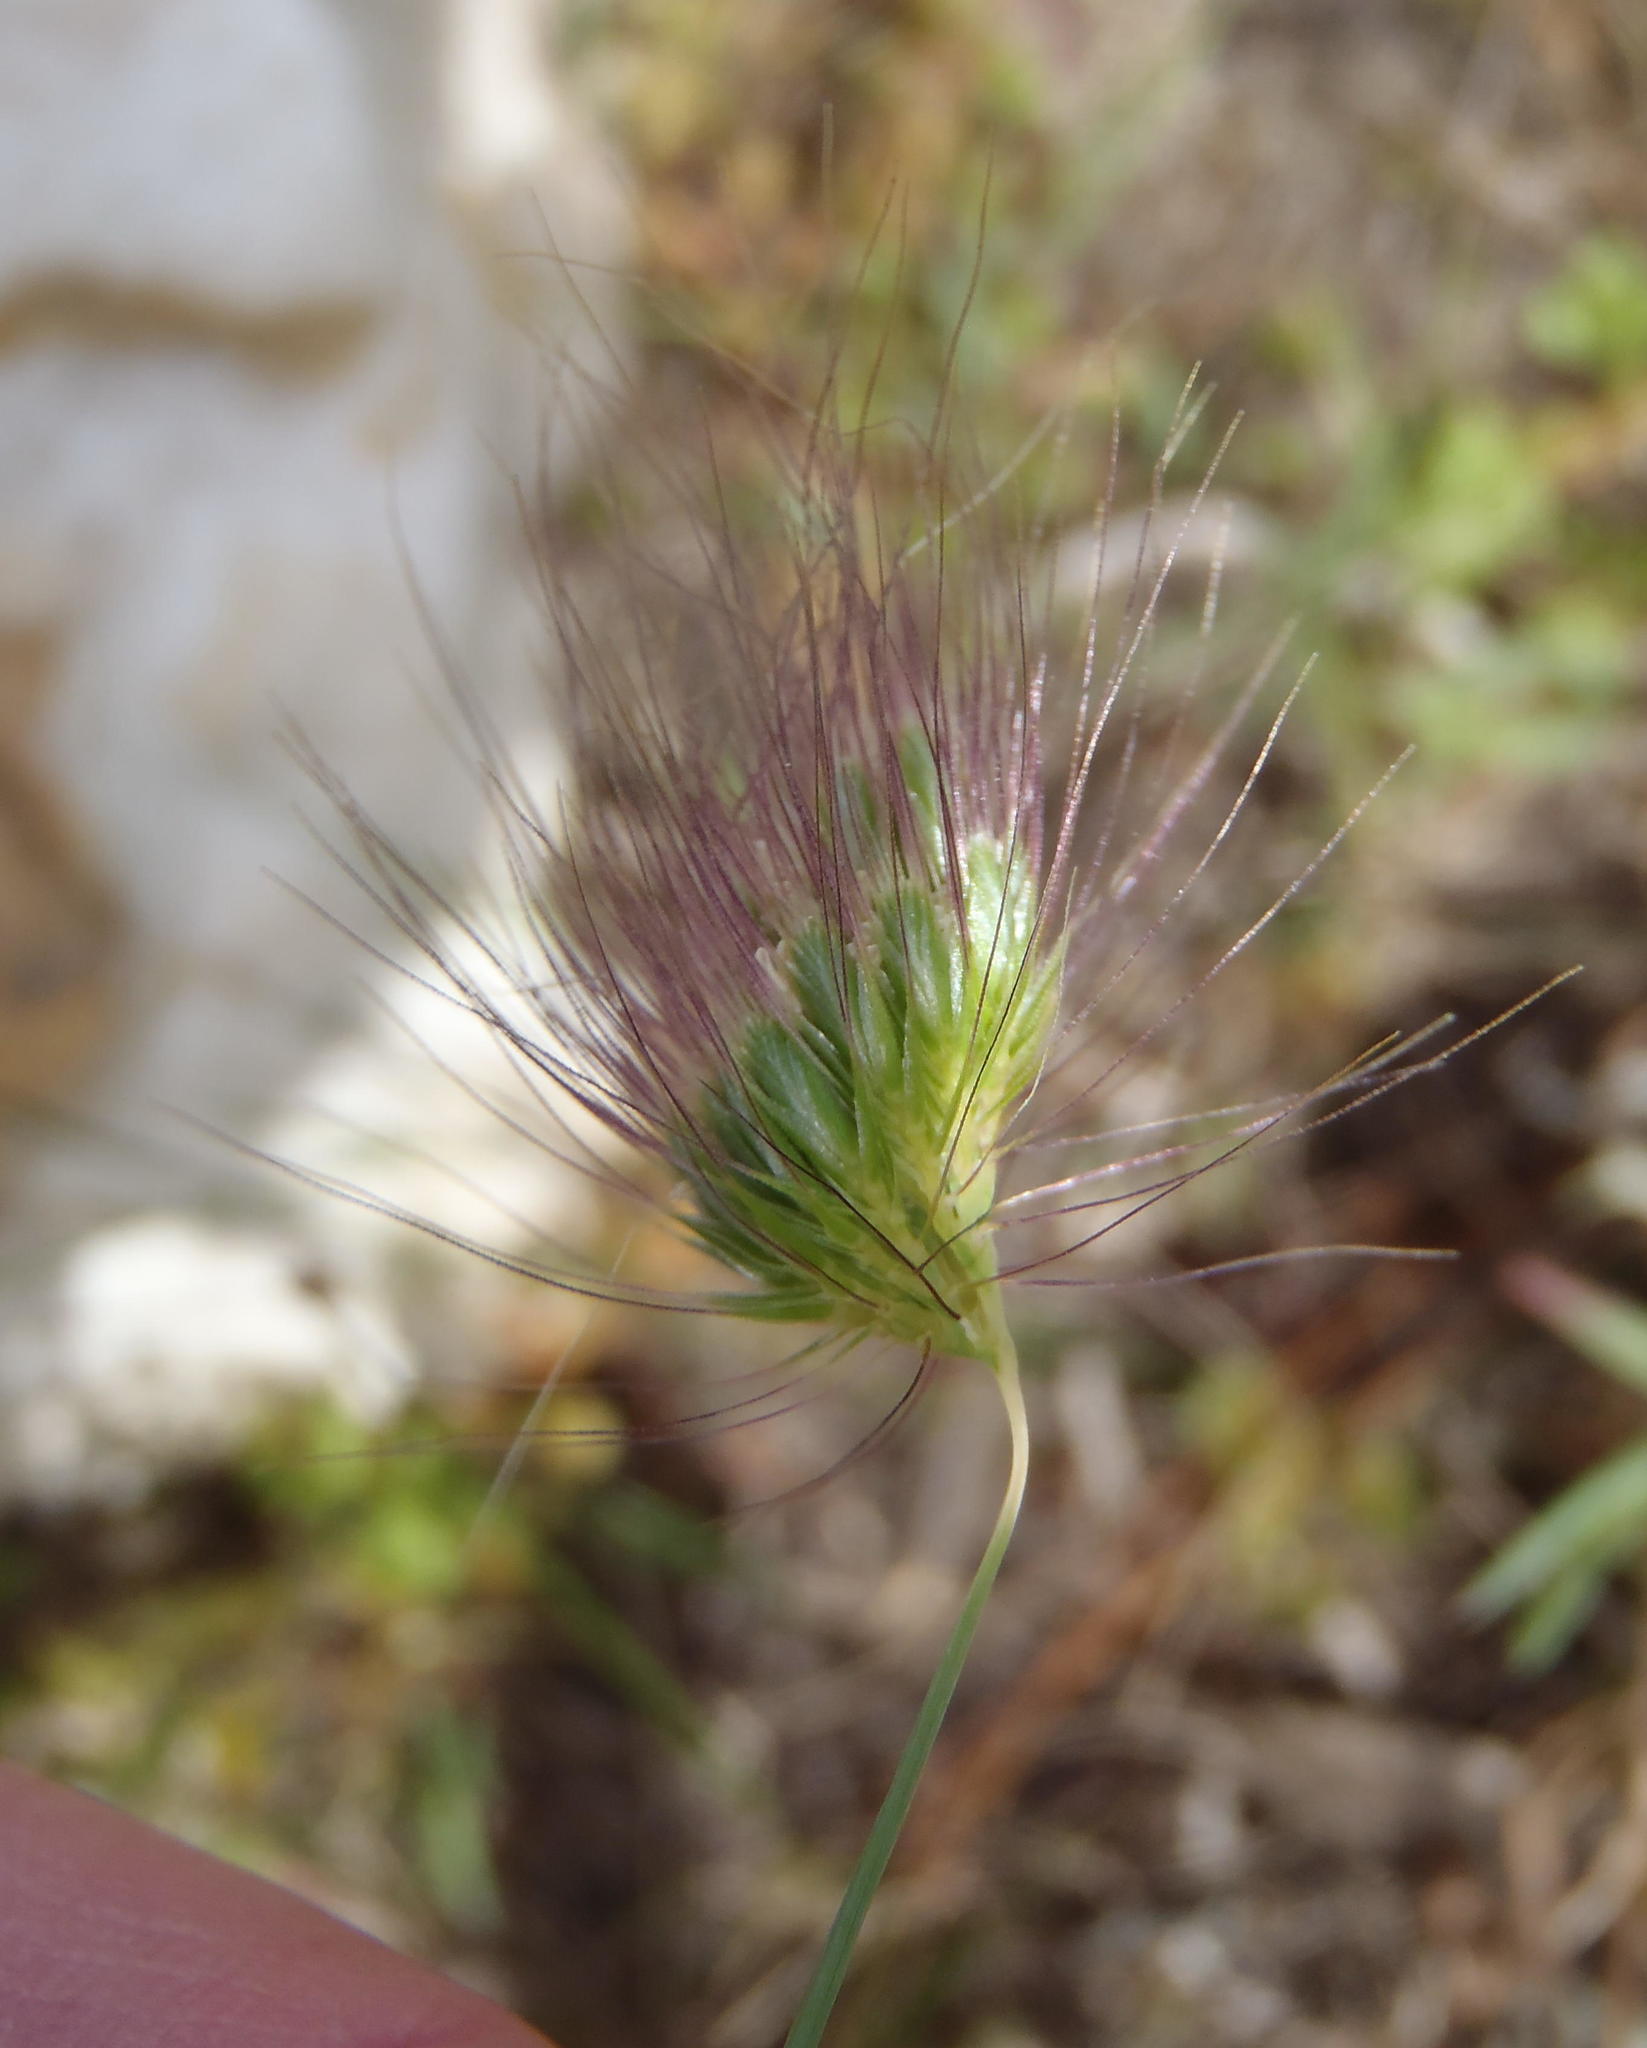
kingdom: Plantae
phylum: Tracheophyta
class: Liliopsida
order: Poales
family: Poaceae
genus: Cynosurus
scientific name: Cynosurus coloratus
